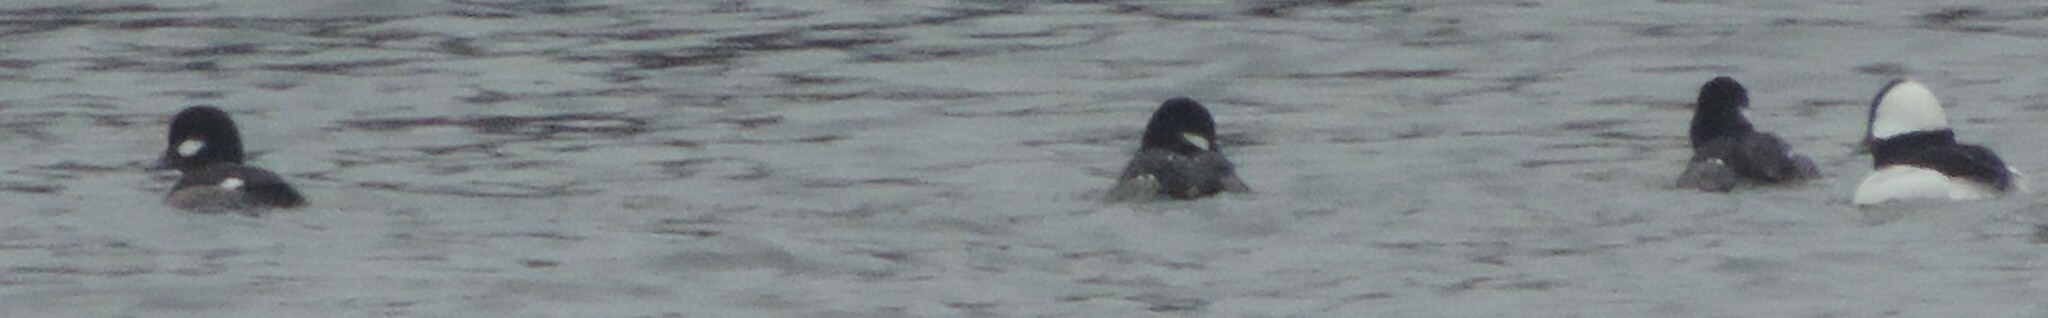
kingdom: Animalia
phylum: Chordata
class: Aves
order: Anseriformes
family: Anatidae
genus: Bucephala
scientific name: Bucephala albeola
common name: Bufflehead
